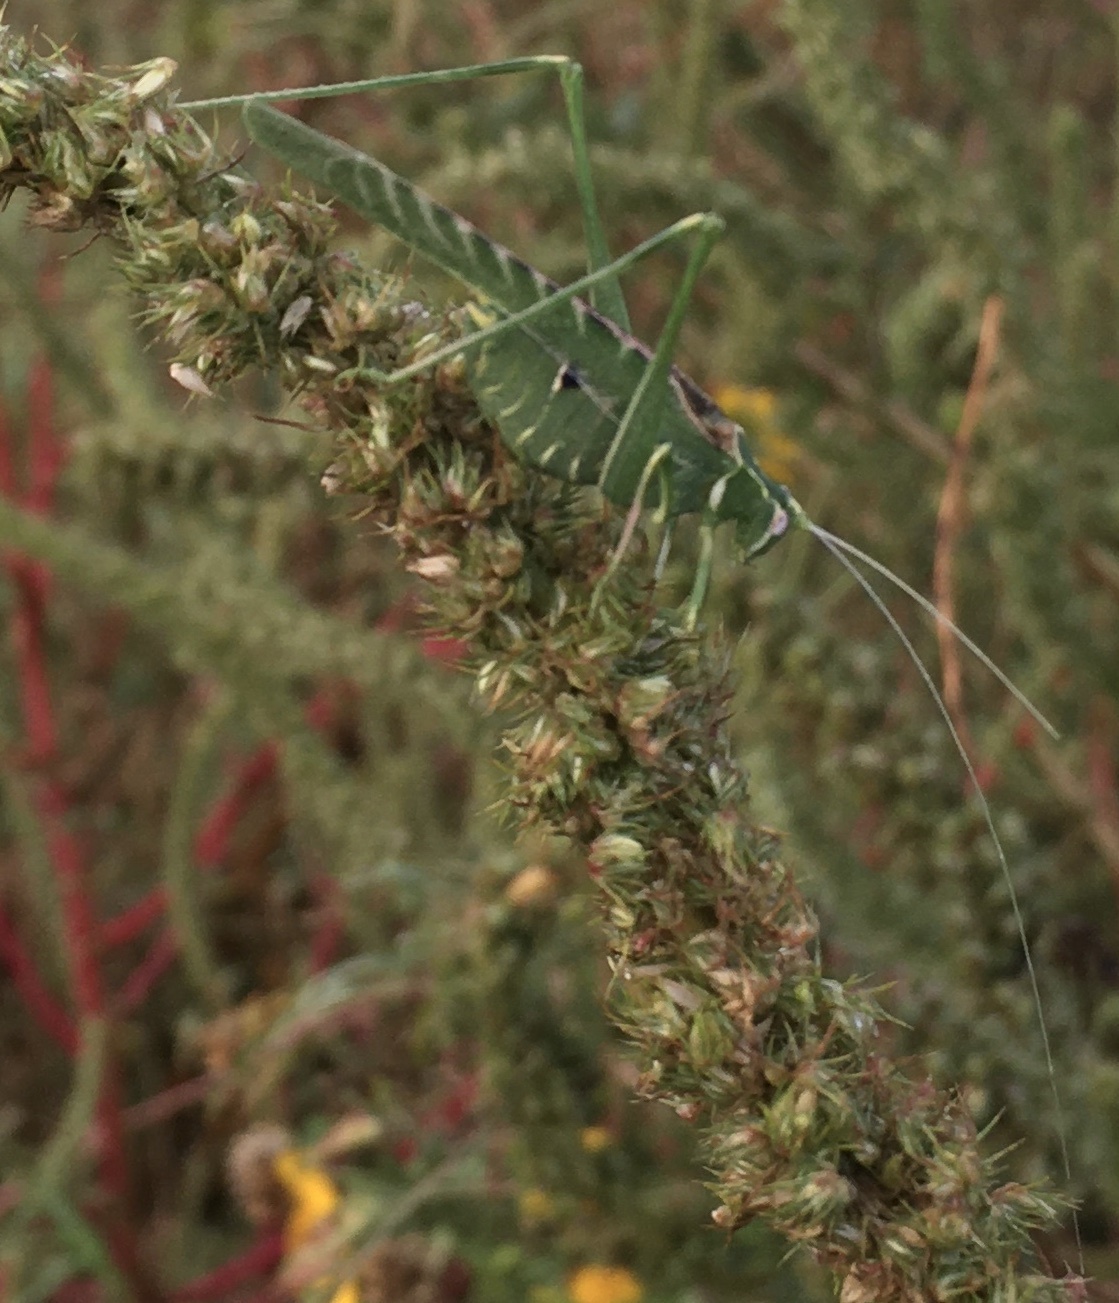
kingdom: Animalia
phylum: Arthropoda
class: Insecta
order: Orthoptera
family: Tettigoniidae
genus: Insara
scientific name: Insara elegans
